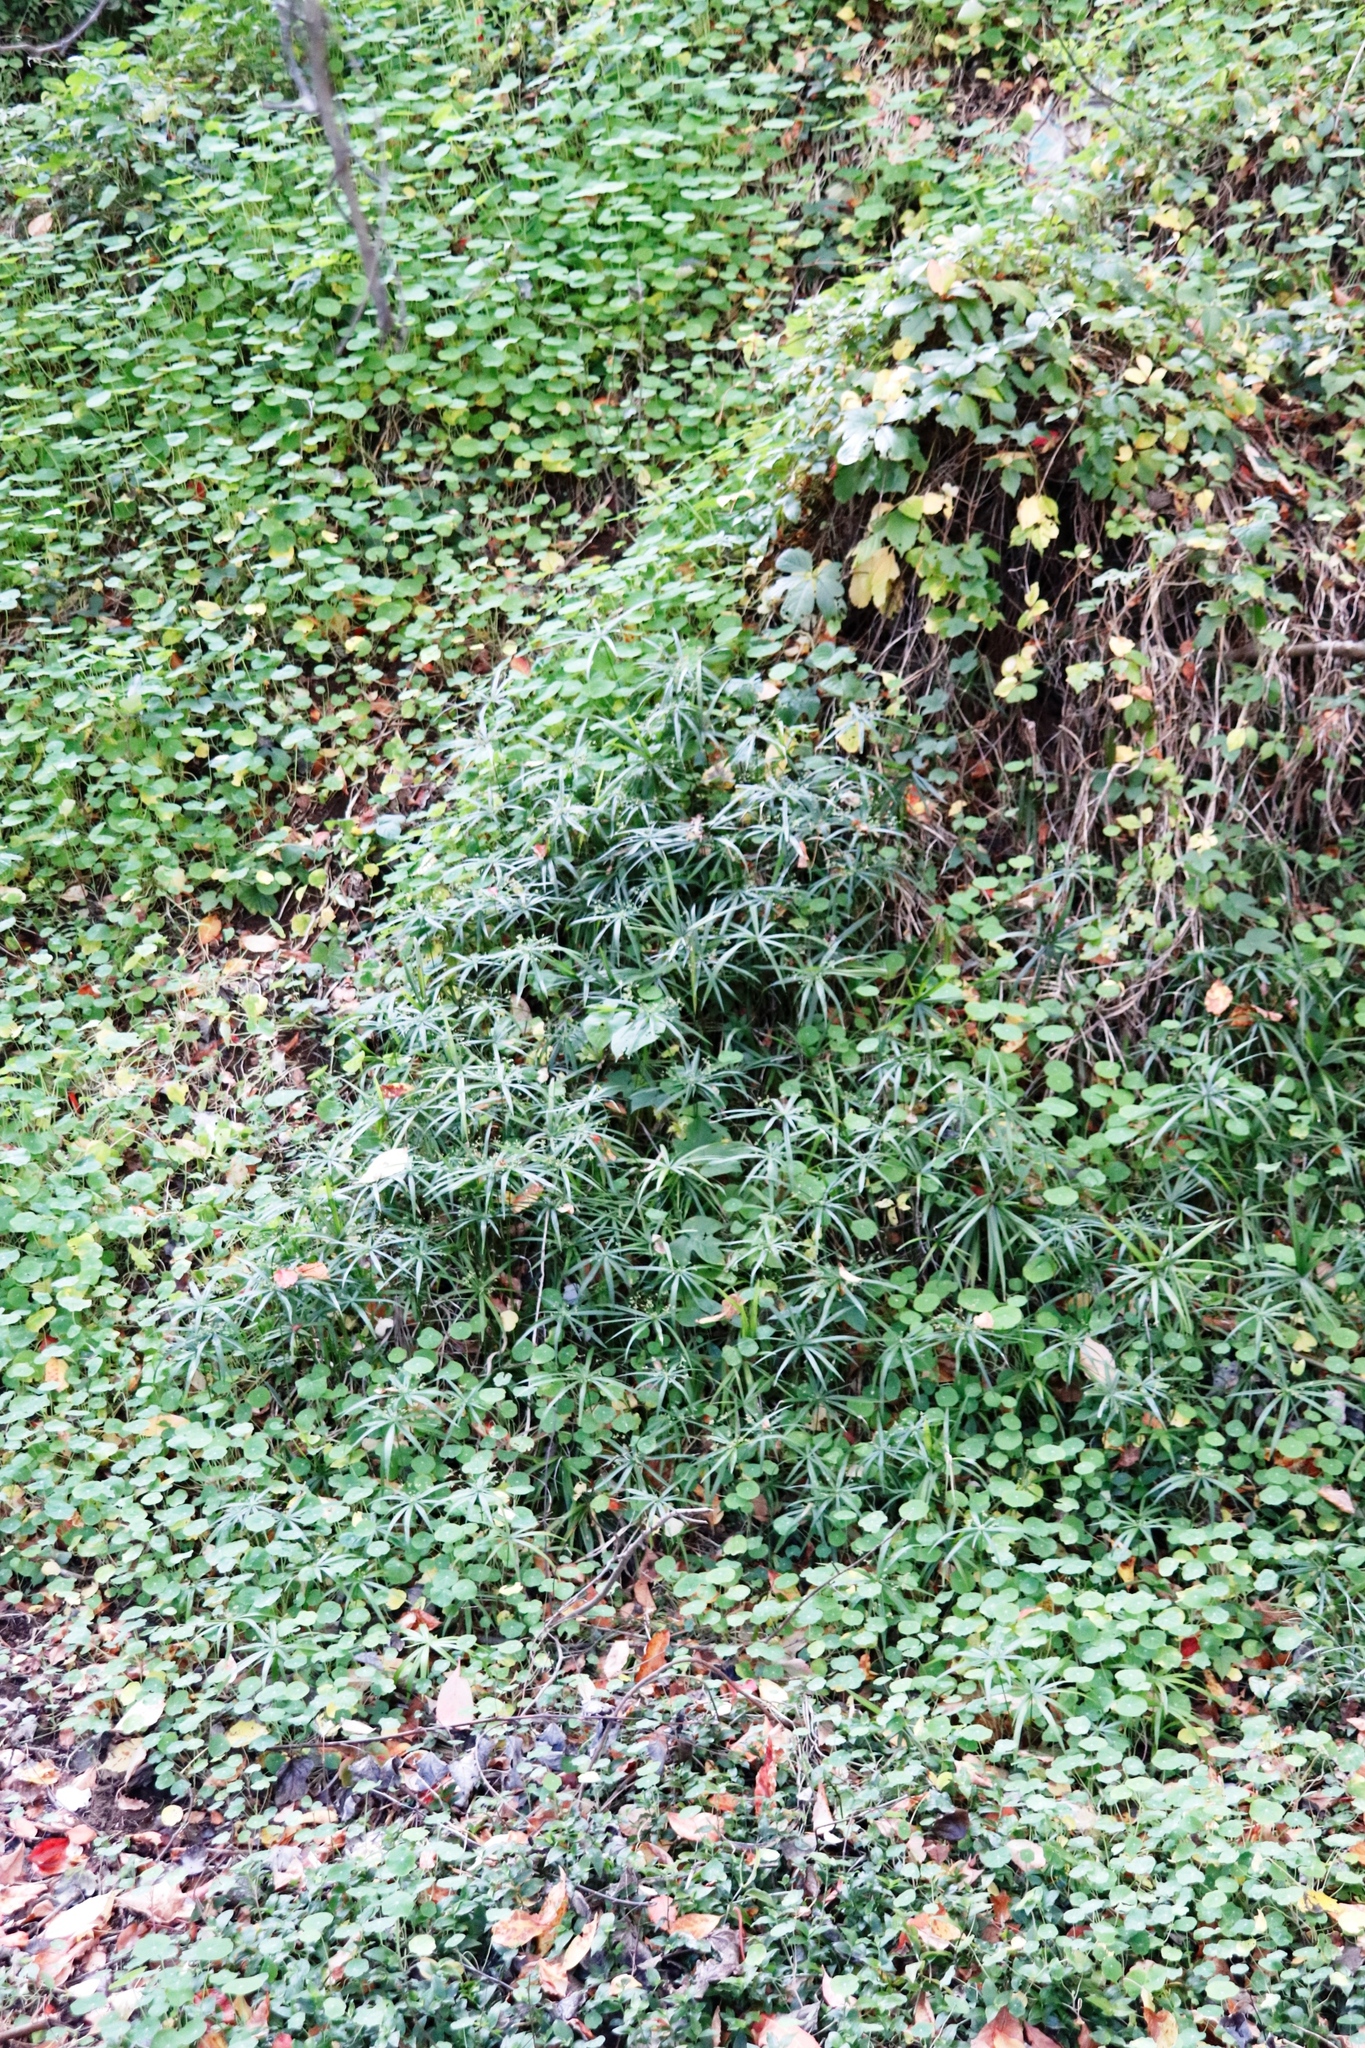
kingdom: Plantae
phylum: Tracheophyta
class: Liliopsida
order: Poales
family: Cyperaceae
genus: Cyperus
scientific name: Cyperus albostriatus
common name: Dwarf umbrella-grass
